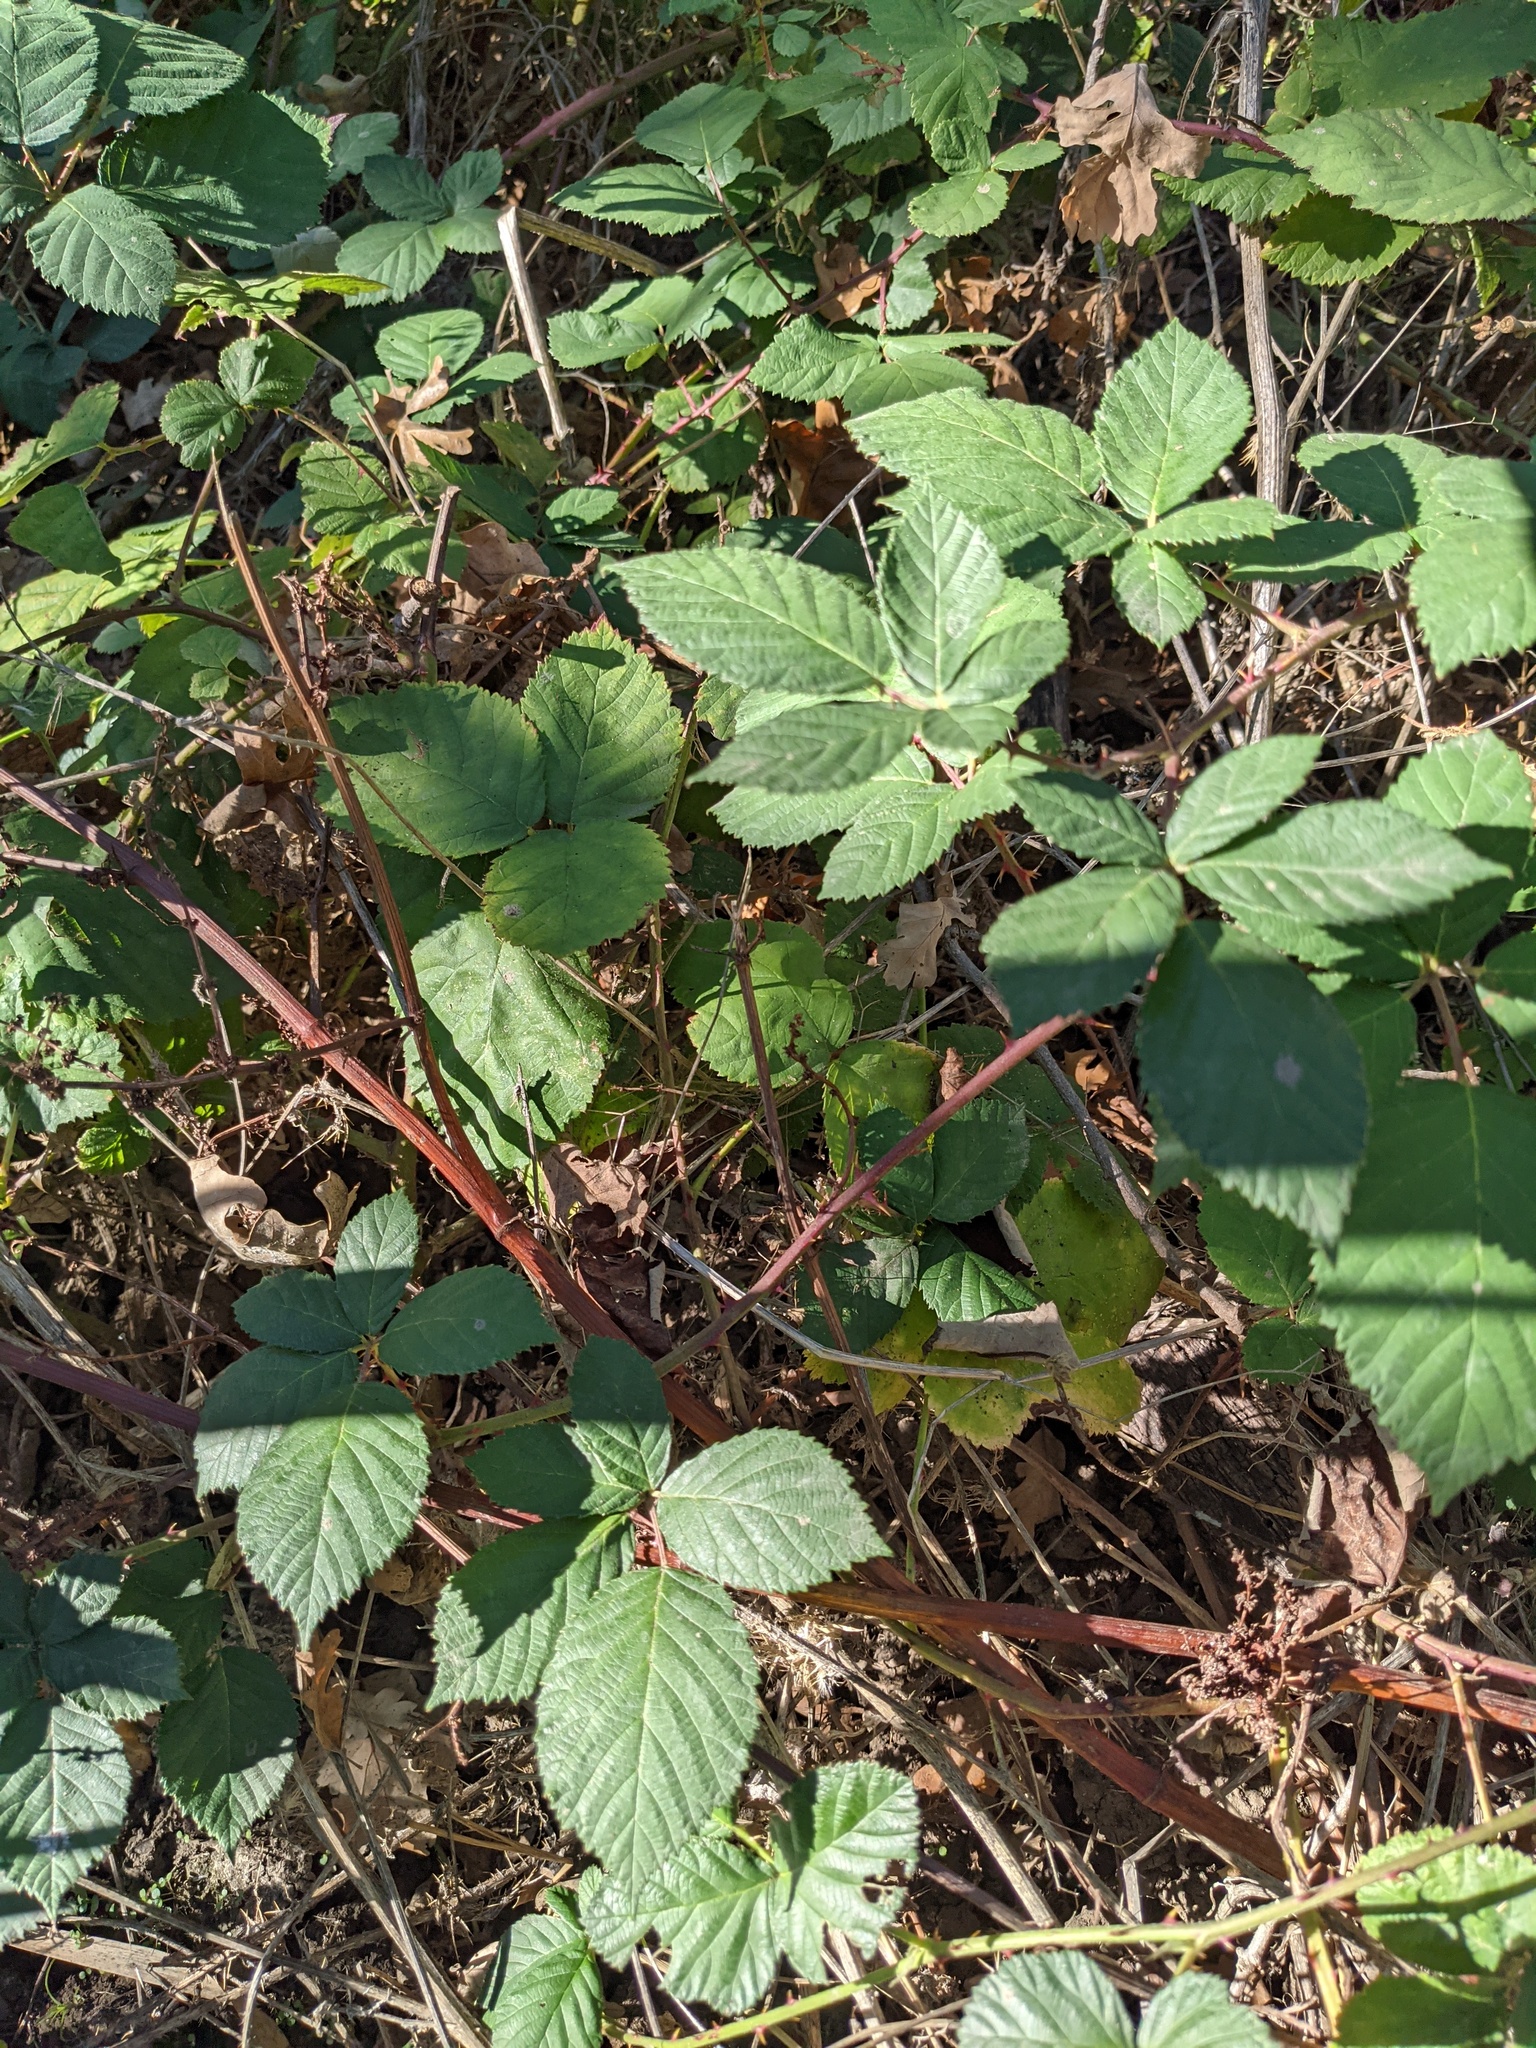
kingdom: Plantae
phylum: Tracheophyta
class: Magnoliopsida
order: Rosales
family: Rosaceae
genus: Rubus
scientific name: Rubus armeniacus
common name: Himalayan blackberry
